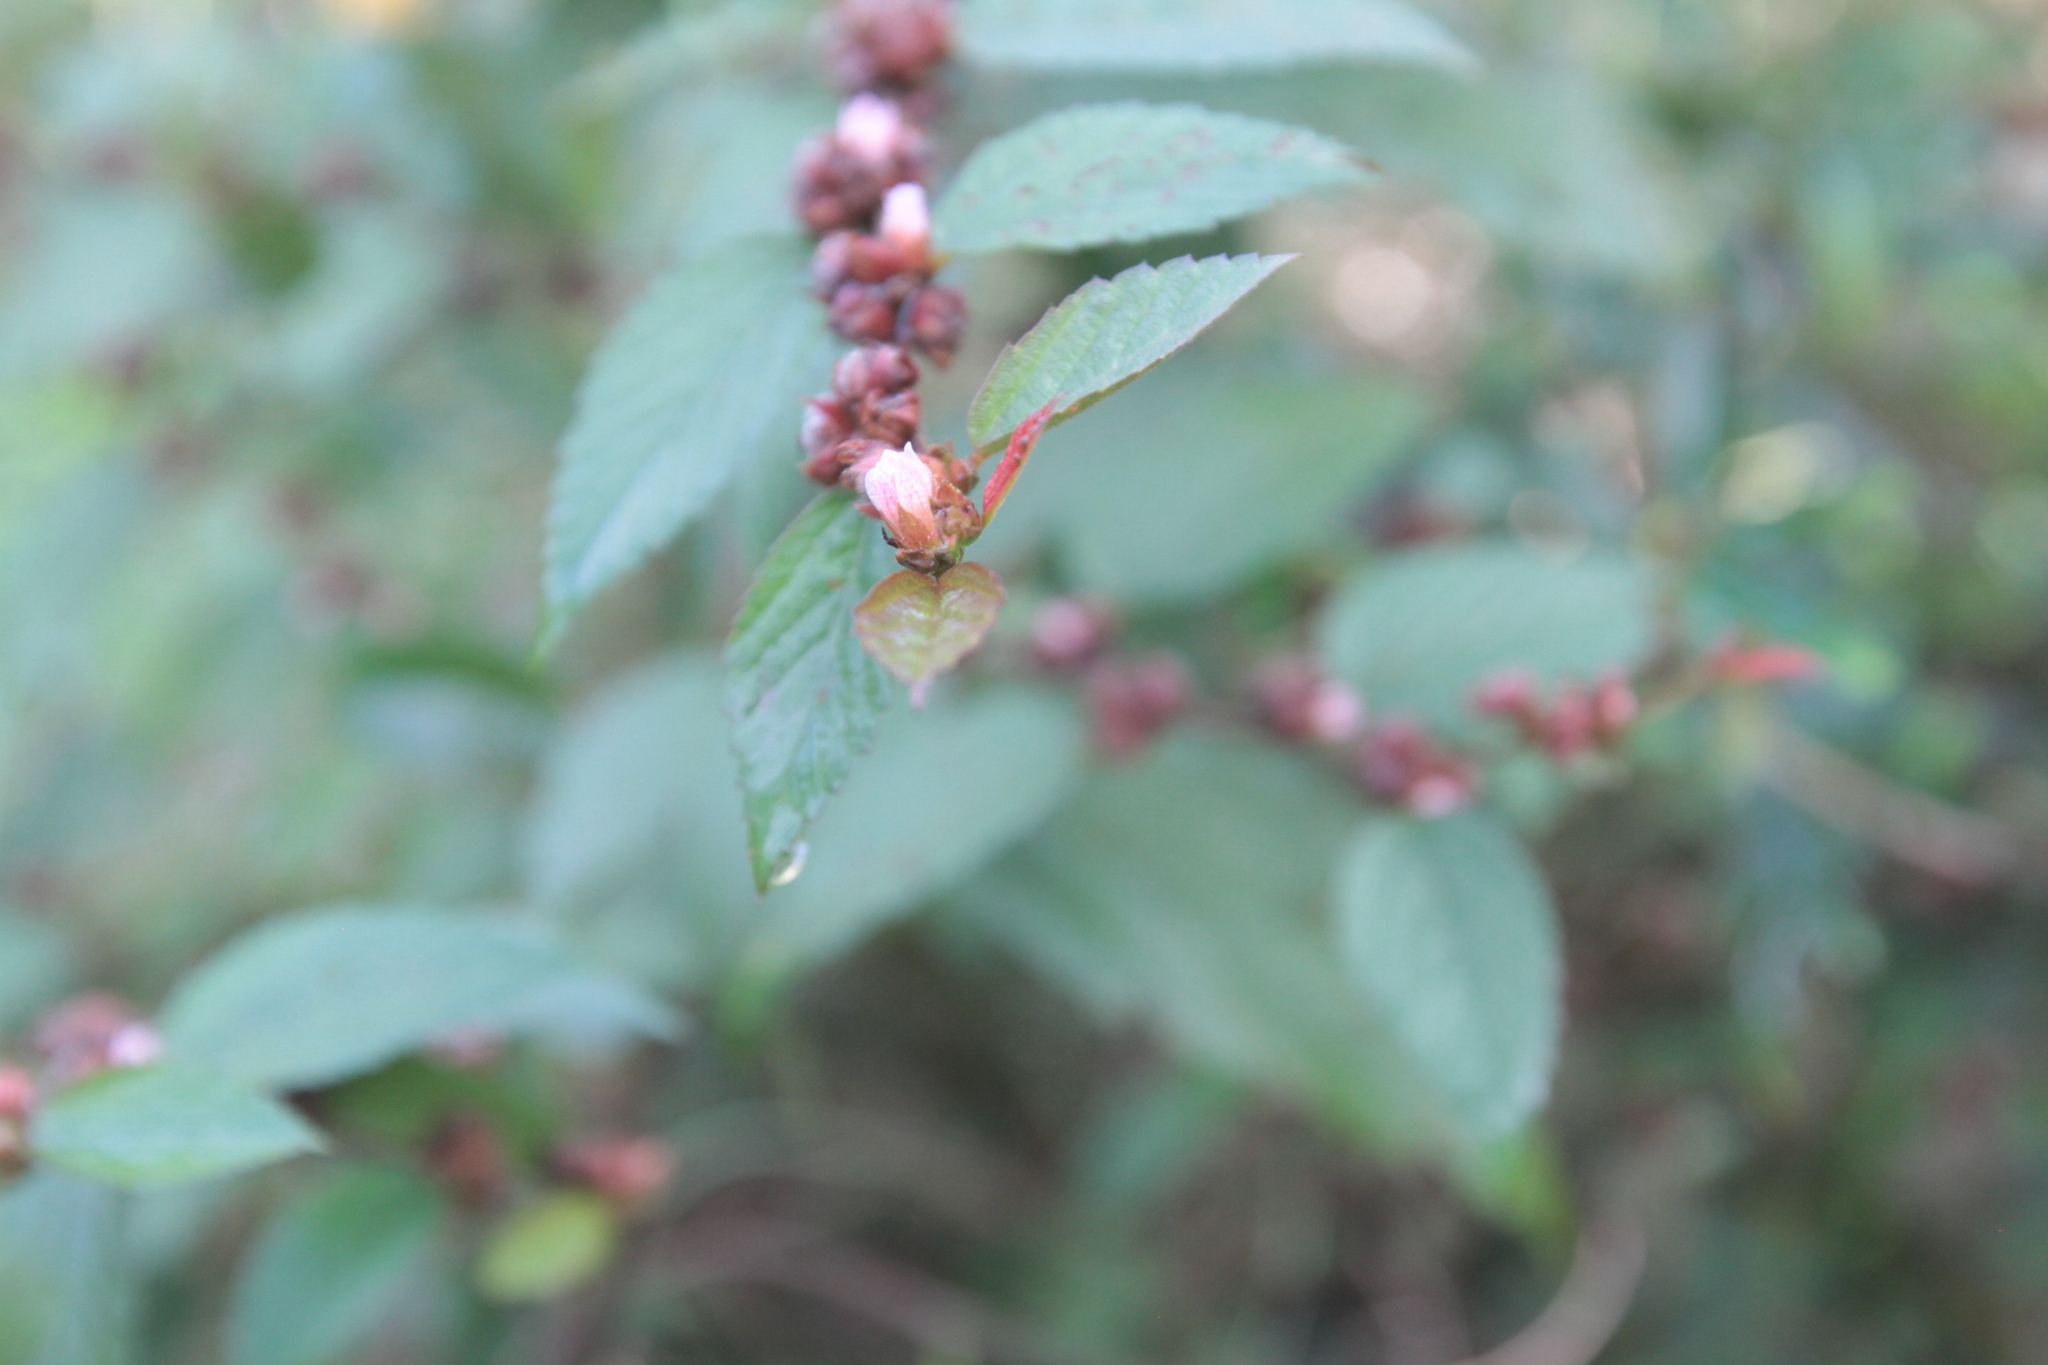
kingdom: Plantae
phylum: Tracheophyta
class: Magnoliopsida
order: Malvales
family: Malvaceae
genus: Melochia
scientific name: Melochia nodiflora
